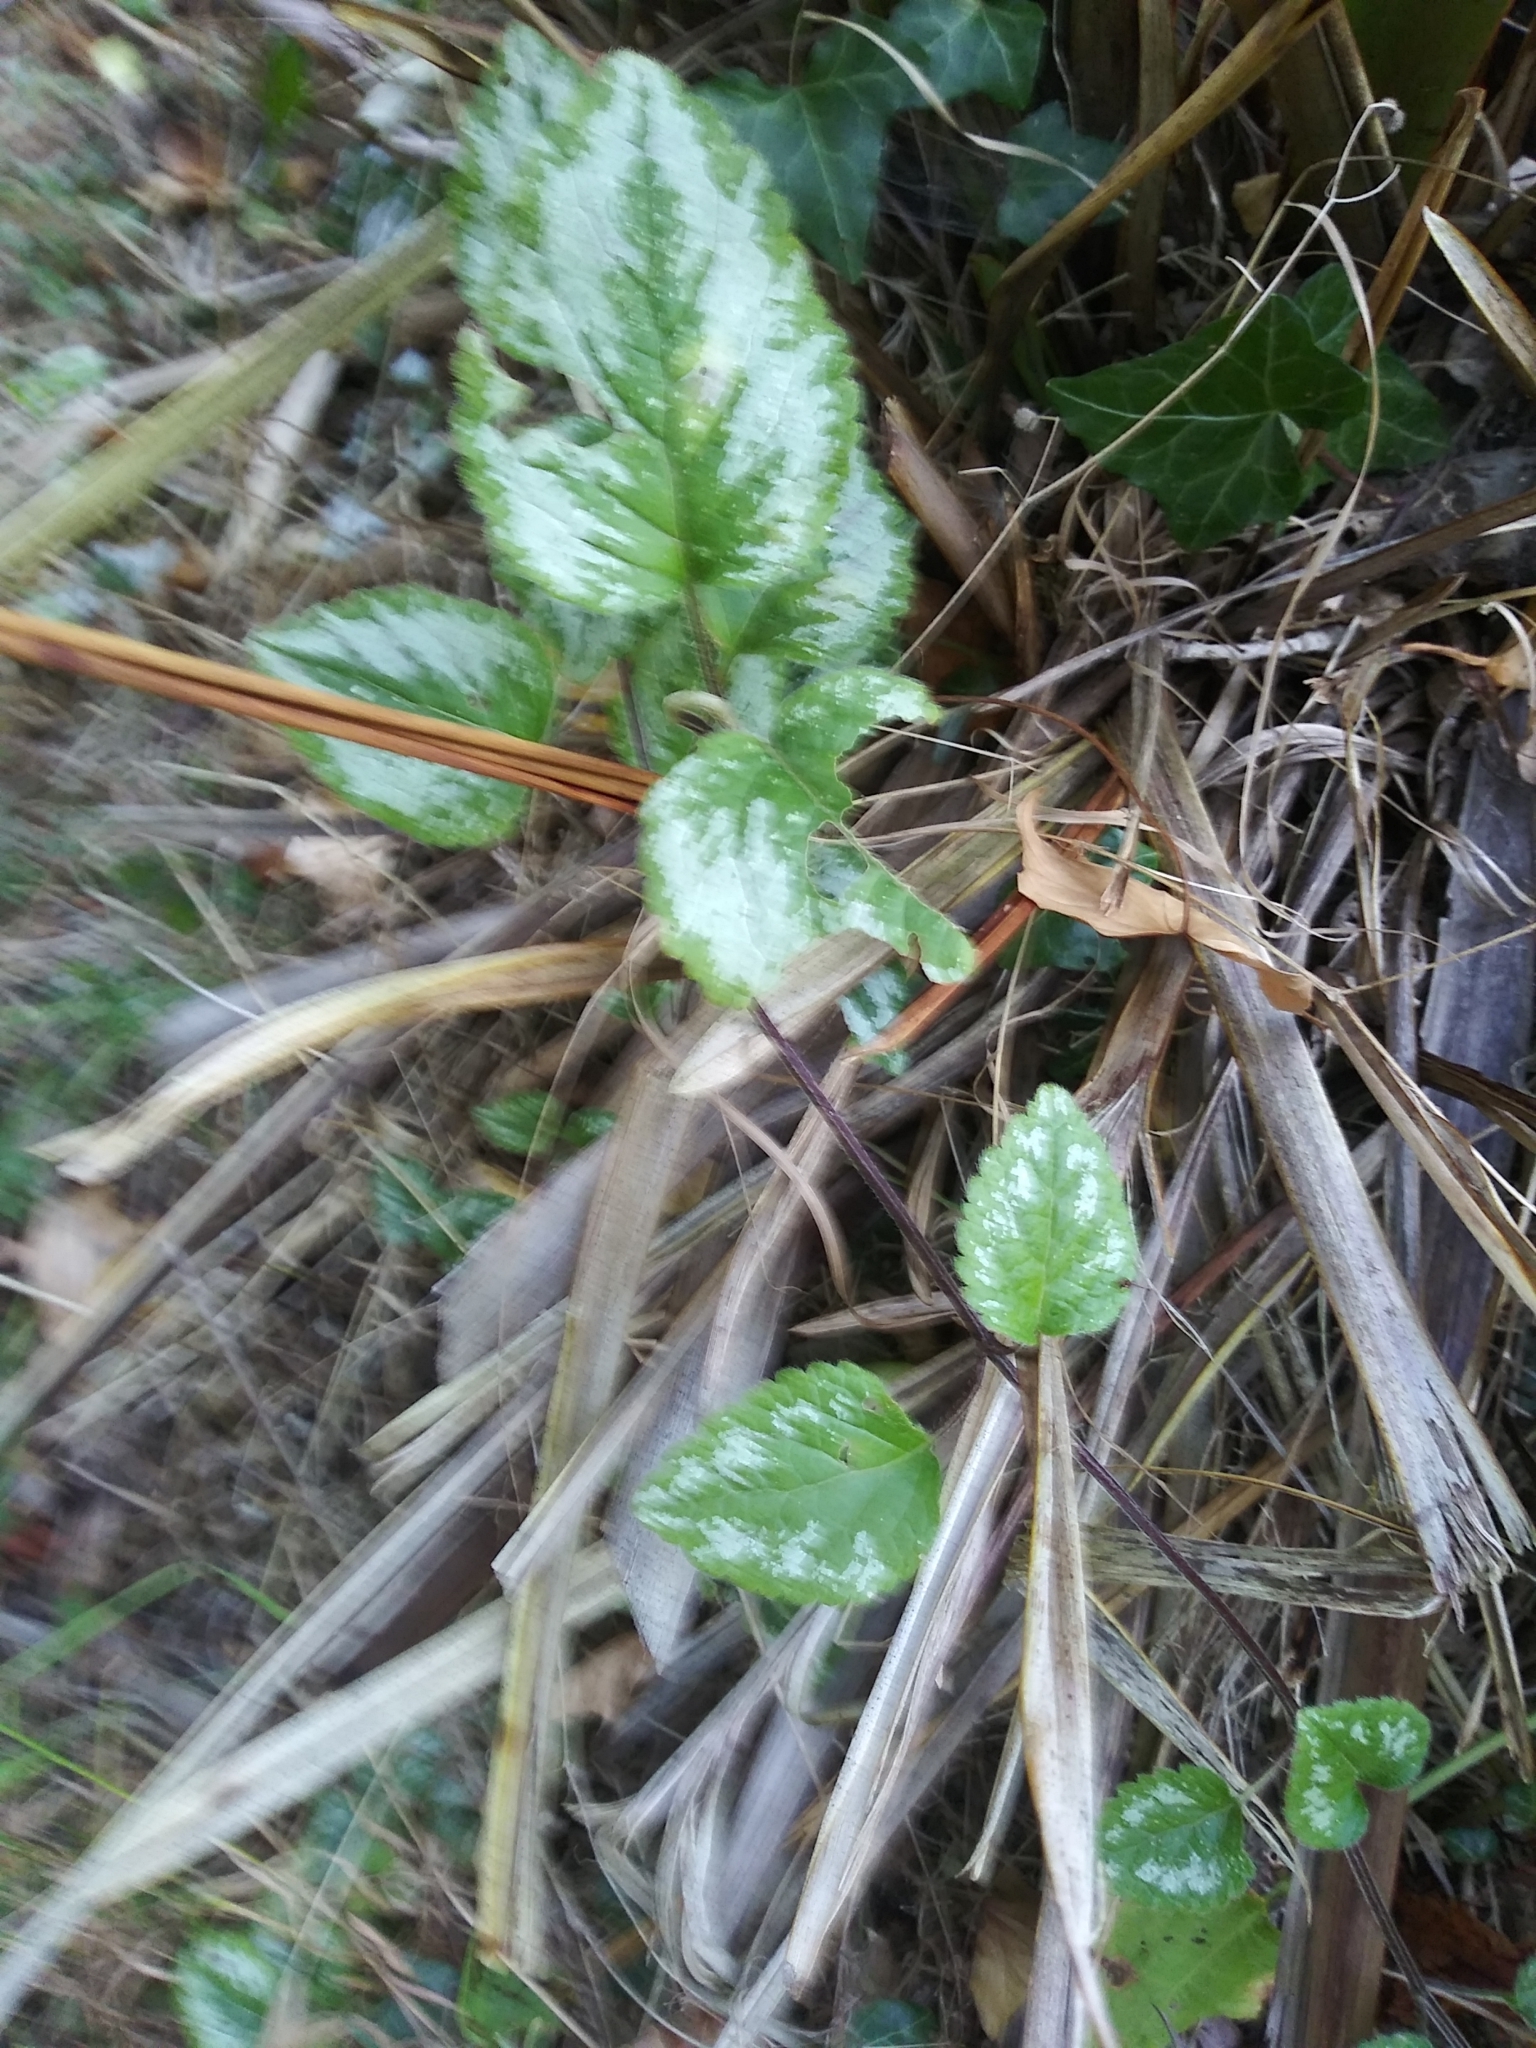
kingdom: Plantae
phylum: Tracheophyta
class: Magnoliopsida
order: Lamiales
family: Lamiaceae
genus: Lamium
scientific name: Lamium galeobdolon
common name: Yellow archangel
